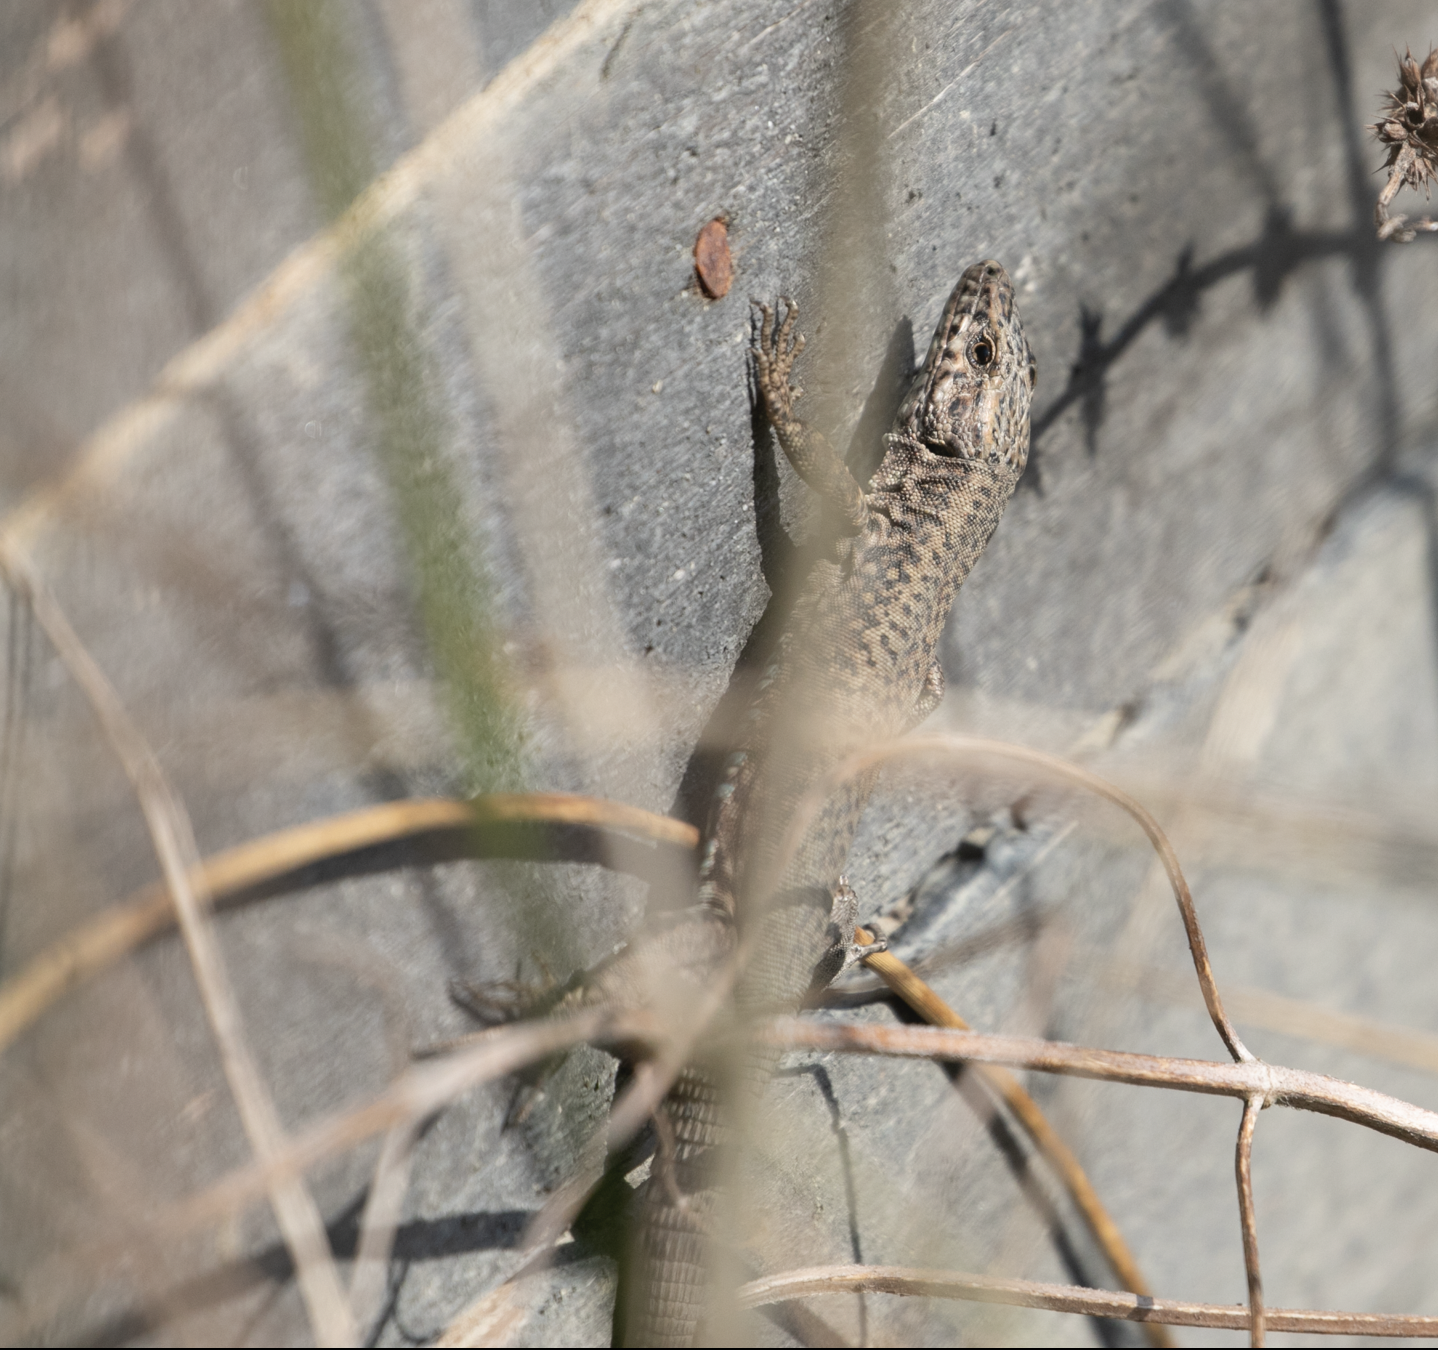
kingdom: Animalia
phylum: Chordata
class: Squamata
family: Lacertidae
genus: Podarcis
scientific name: Podarcis muralis
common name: Common wall lizard
